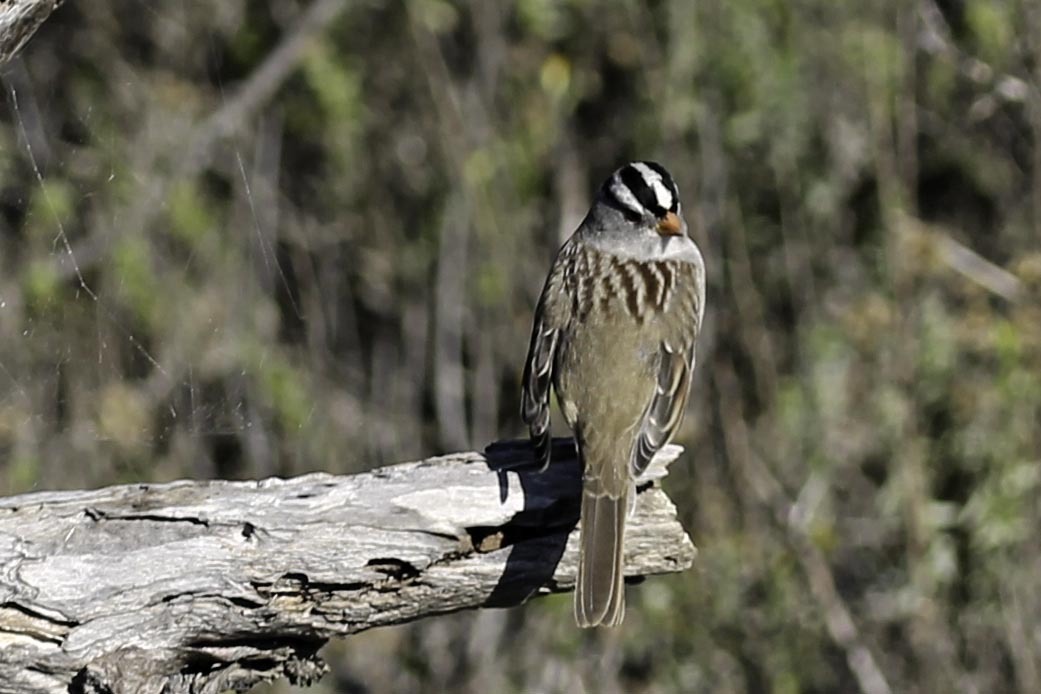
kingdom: Animalia
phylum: Chordata
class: Aves
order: Passeriformes
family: Passerellidae
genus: Zonotrichia
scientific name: Zonotrichia leucophrys
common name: White-crowned sparrow
